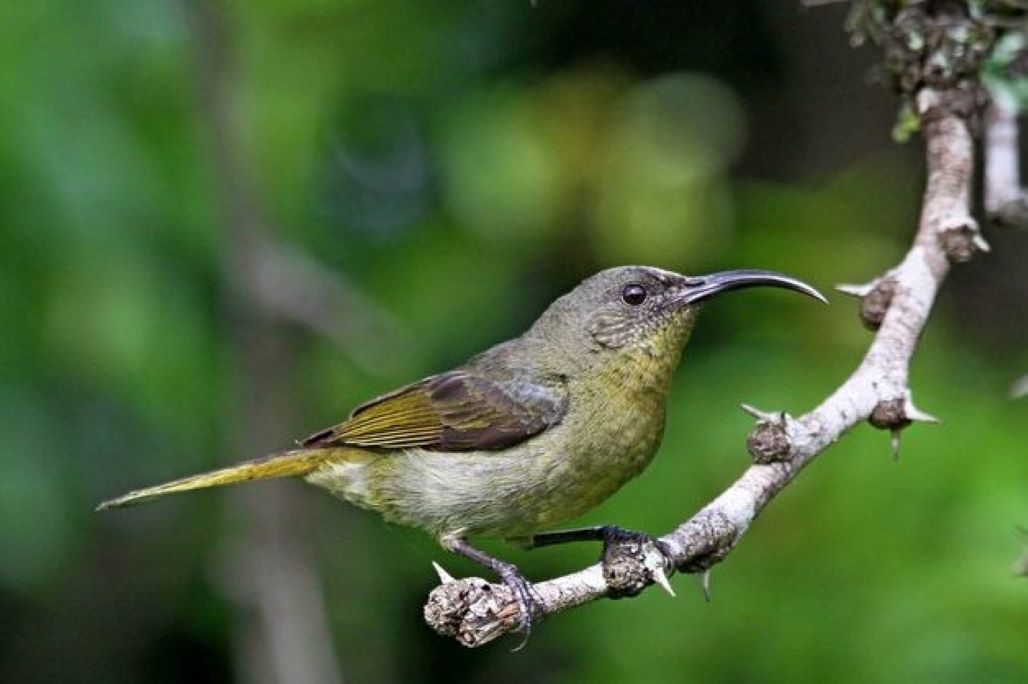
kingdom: Animalia
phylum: Chordata
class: Aves
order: Passeriformes
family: Nectariniidae
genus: Cyanomitra
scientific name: Cyanomitra olivacea
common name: Olive sunbird
